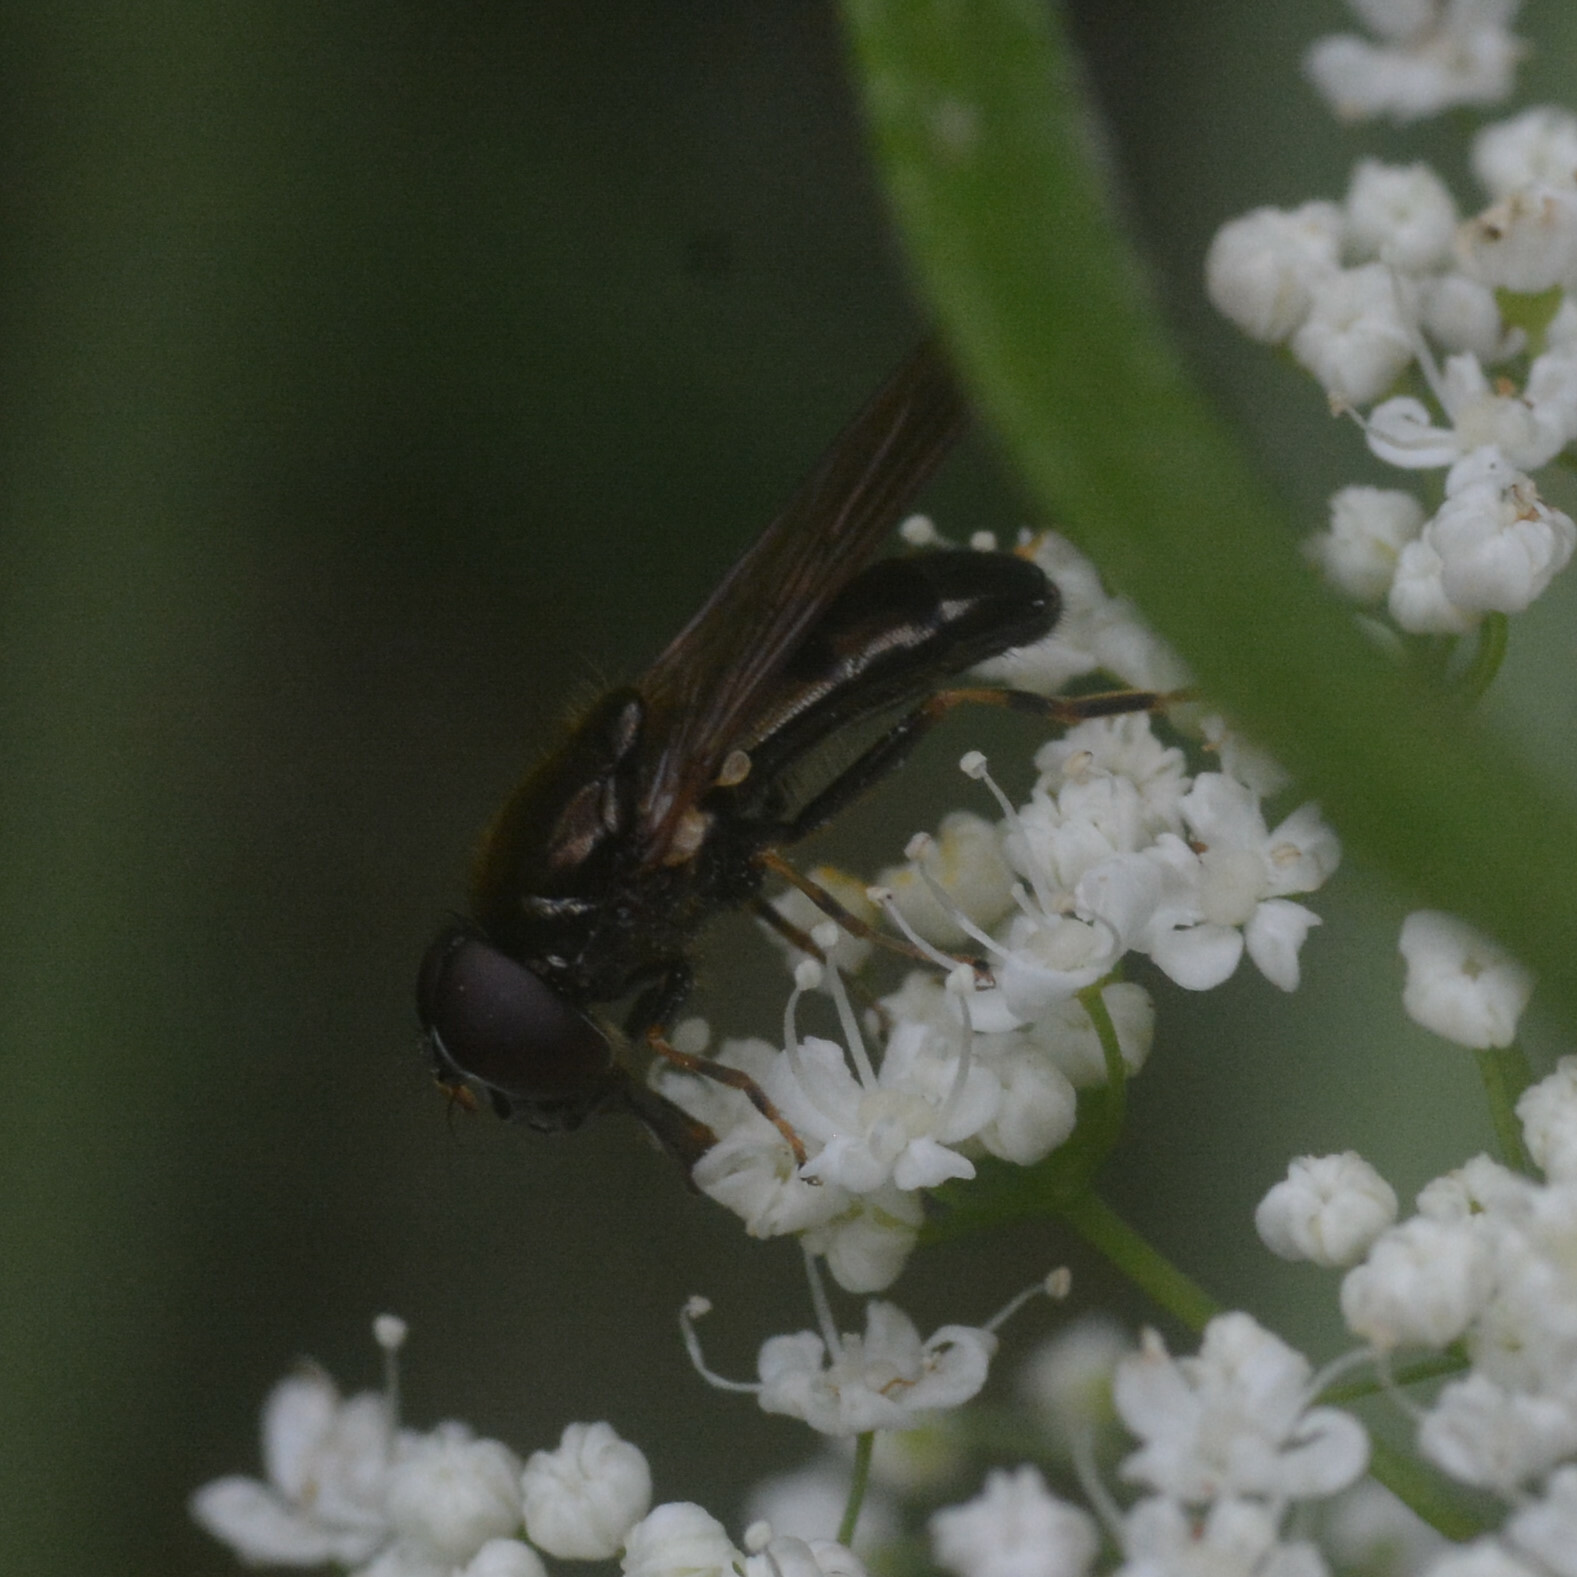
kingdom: Animalia
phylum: Arthropoda
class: Insecta
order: Diptera
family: Syrphidae
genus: Cheilosia
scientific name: Cheilosia pagana
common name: Hover fly
